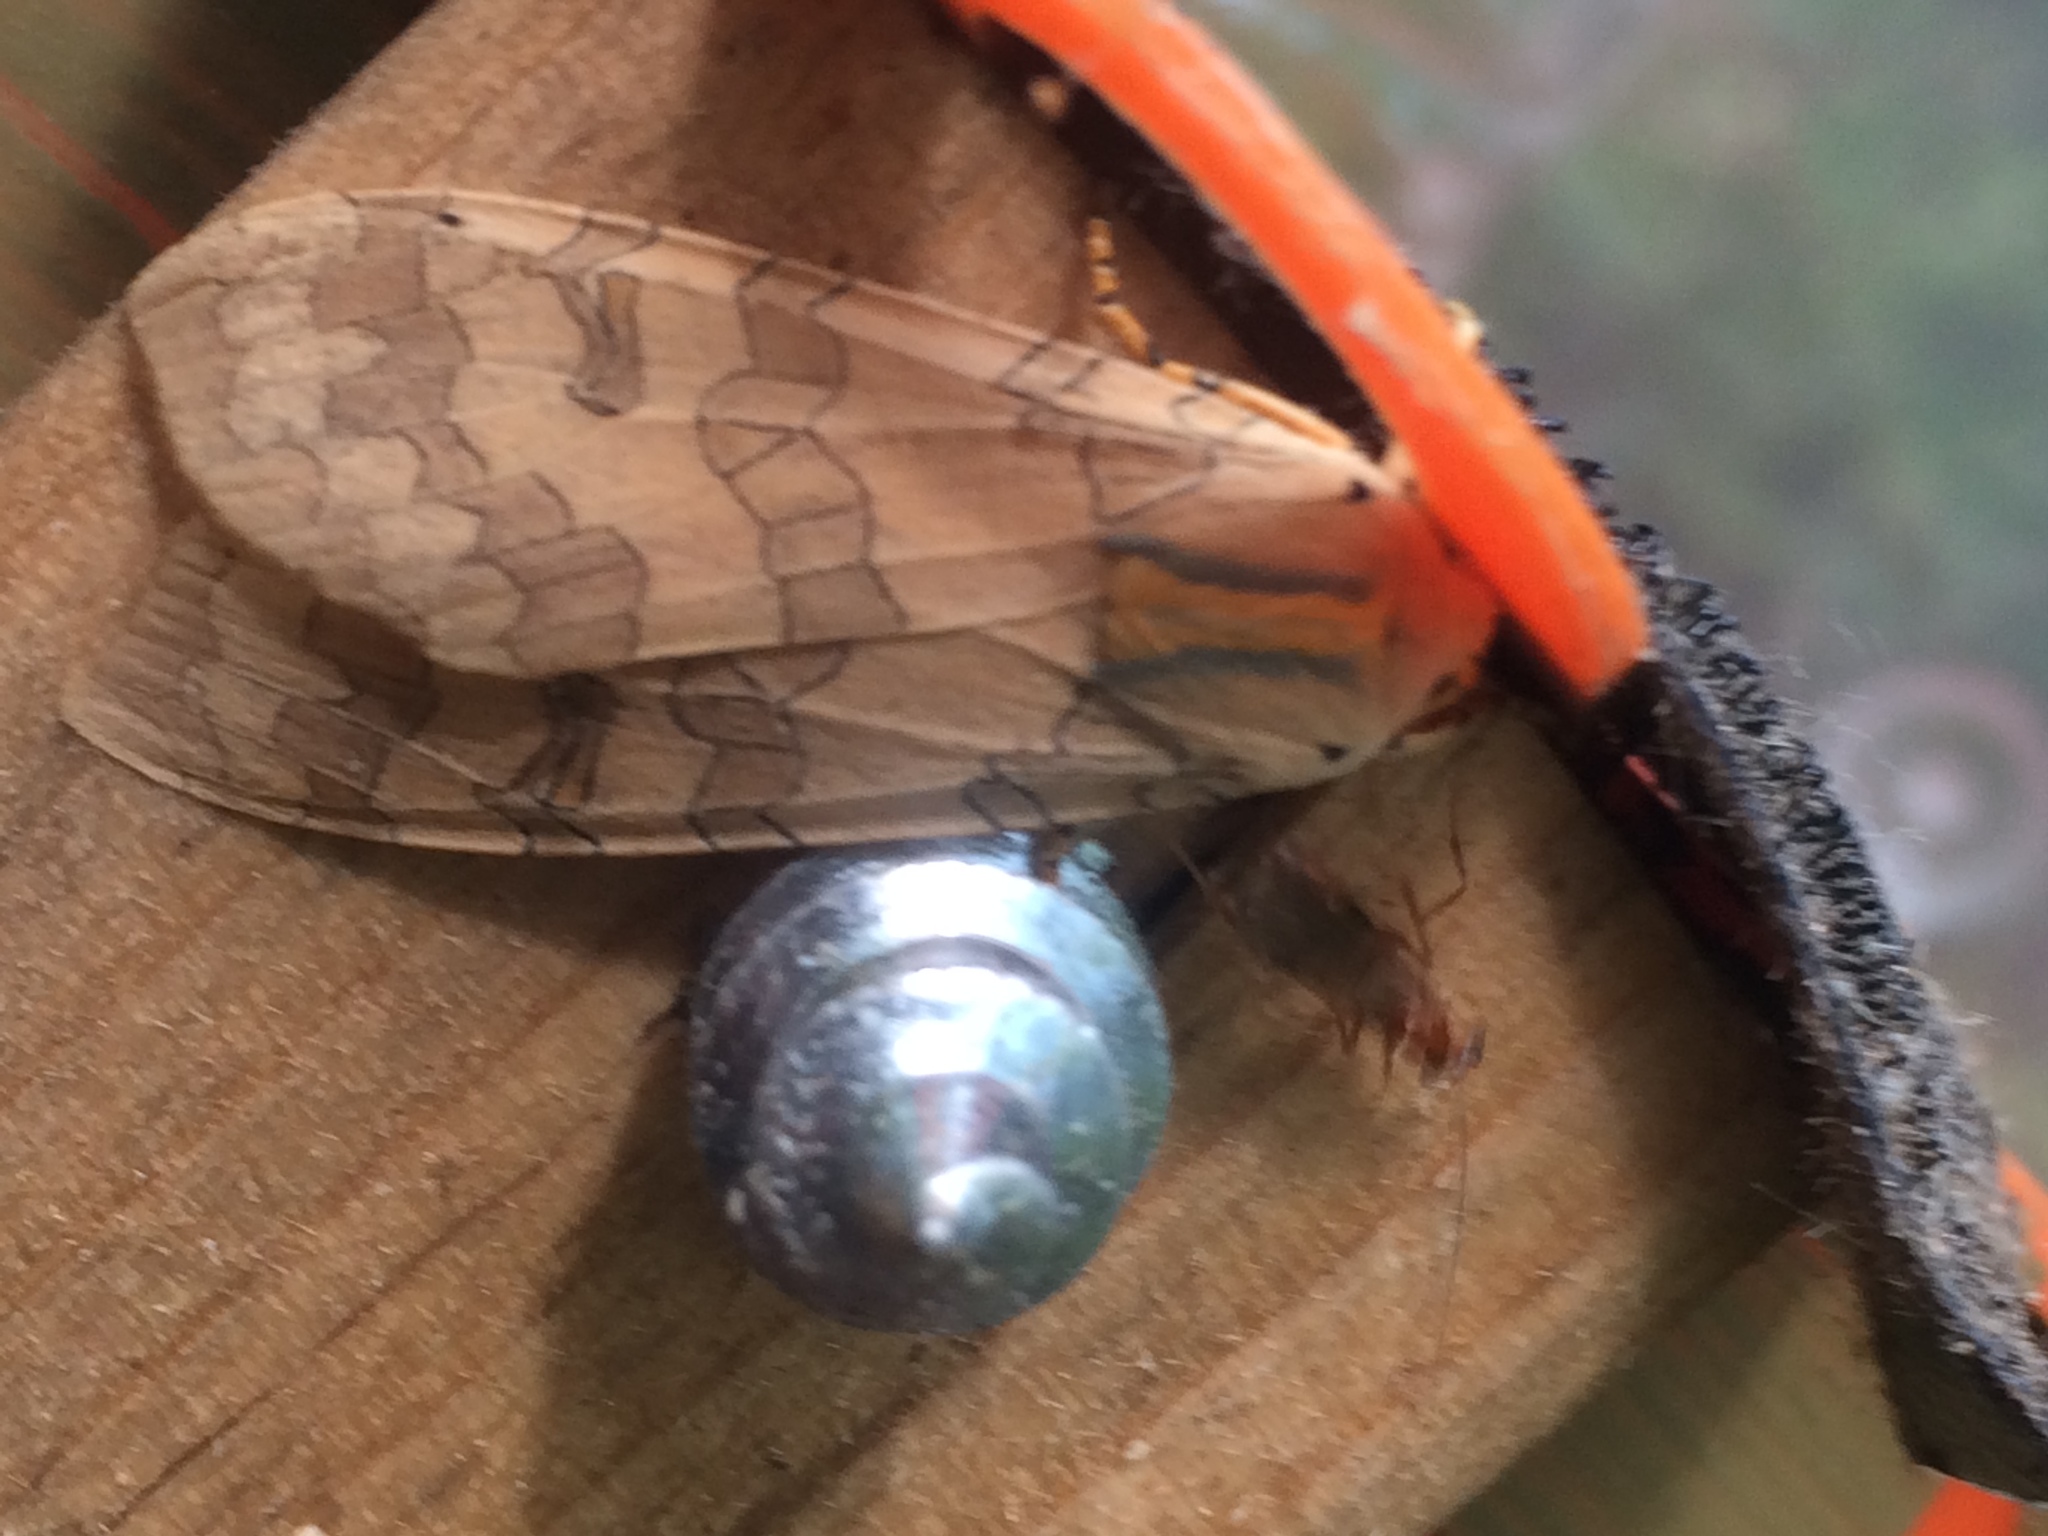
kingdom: Animalia
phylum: Arthropoda
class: Insecta
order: Lepidoptera
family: Erebidae
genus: Halysidota
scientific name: Halysidota
